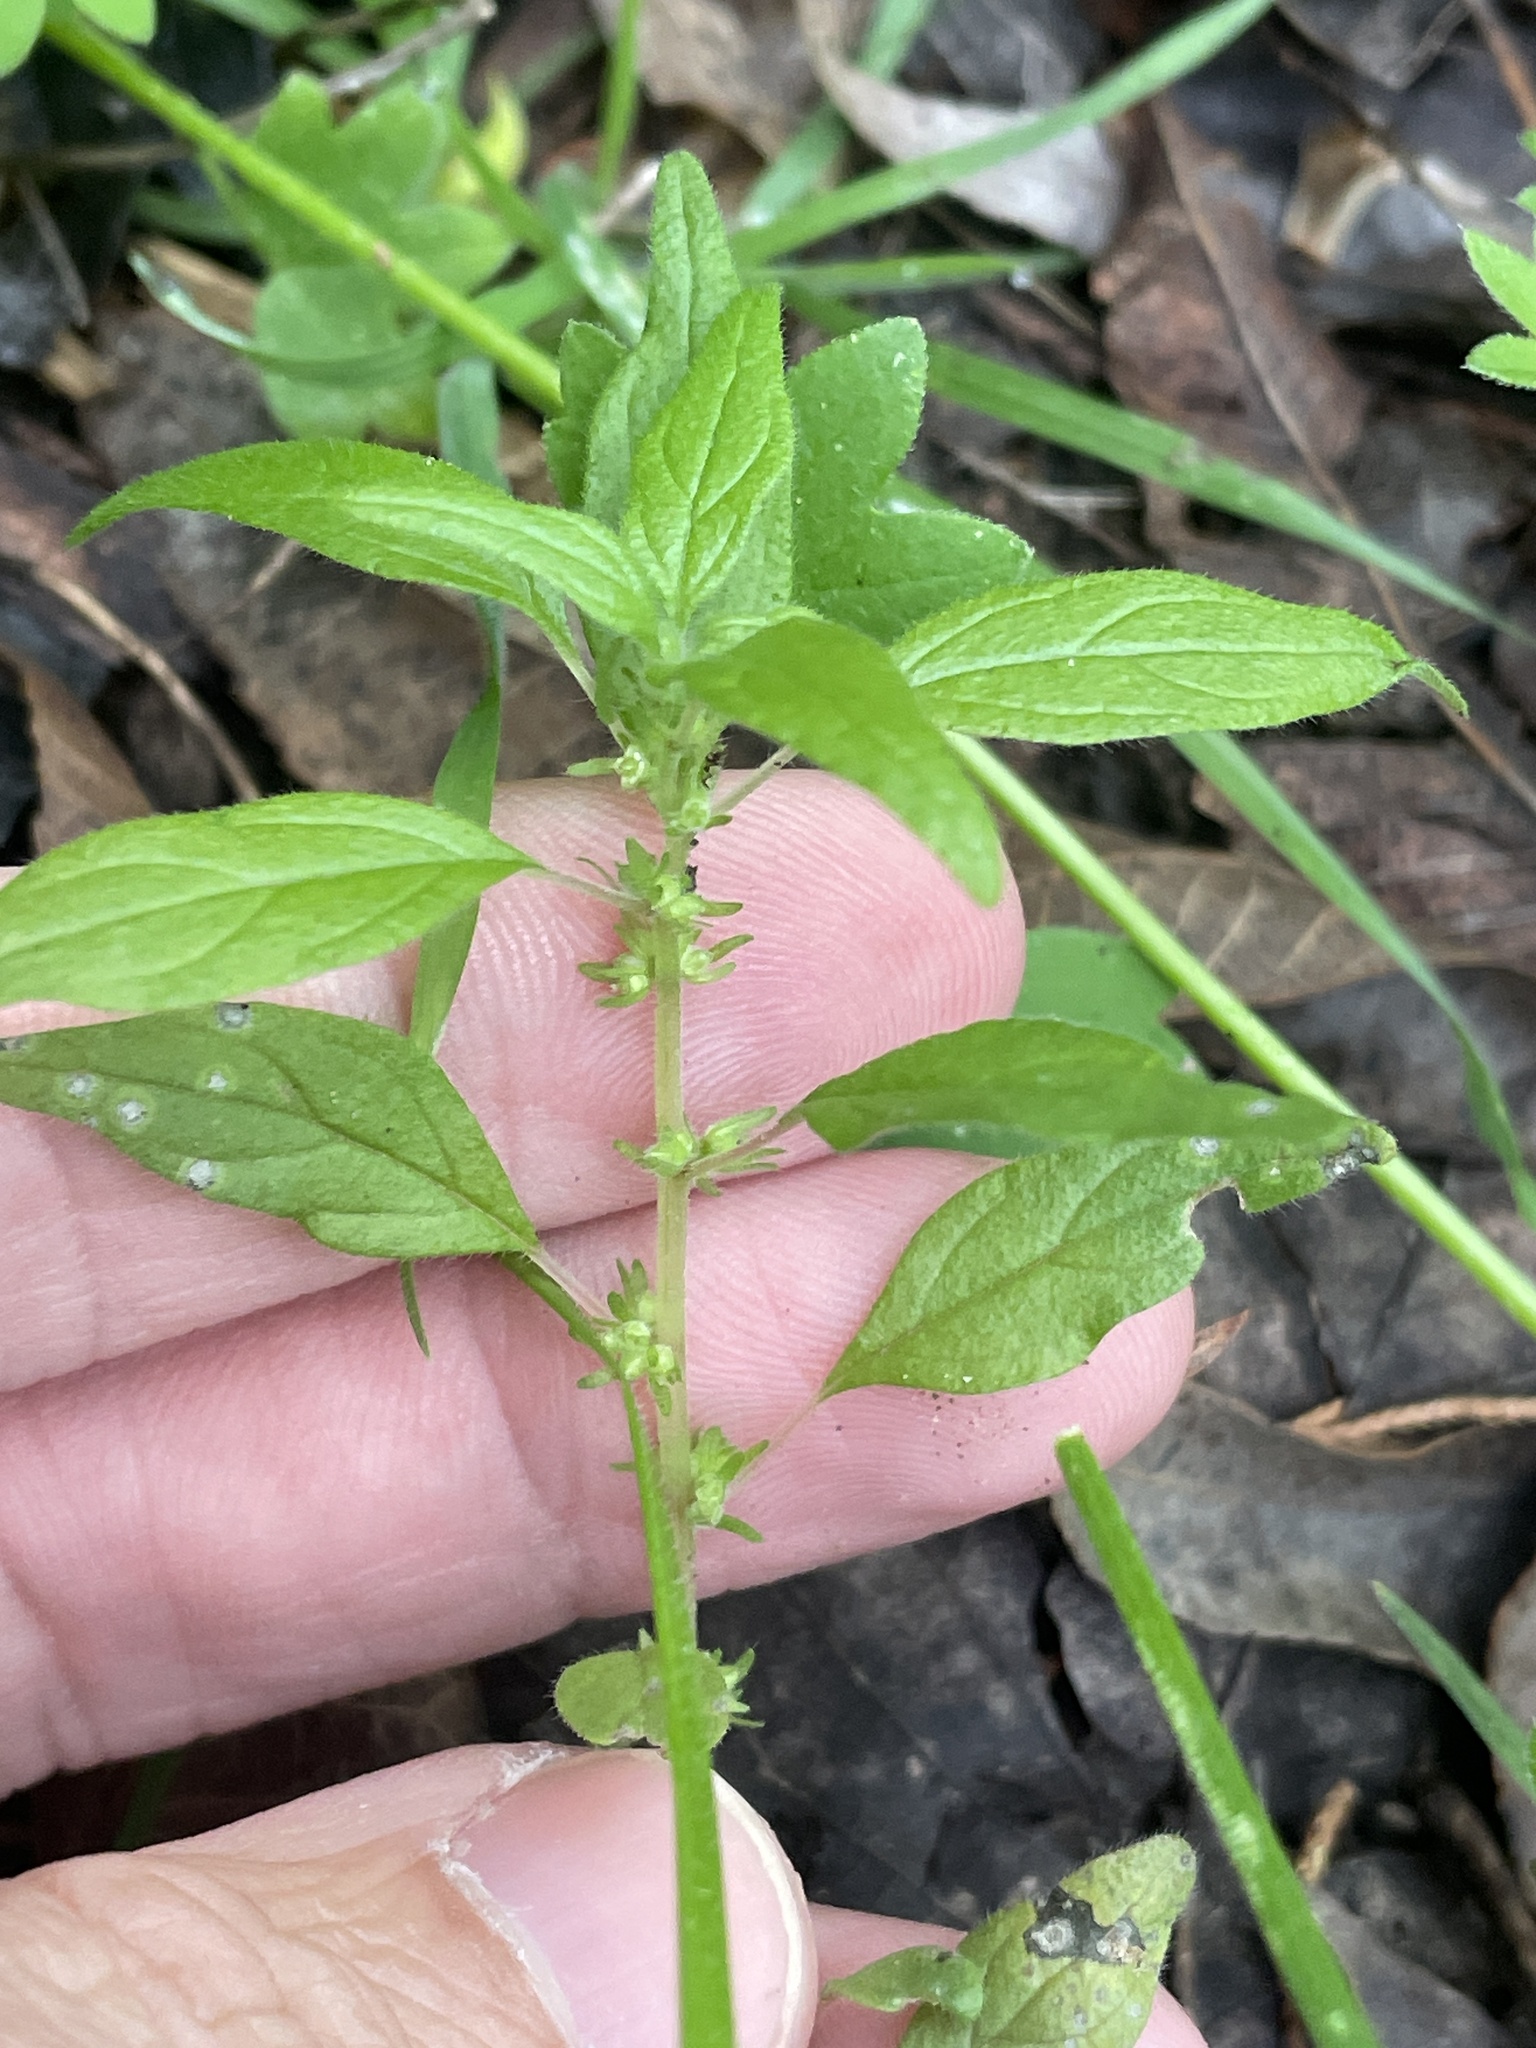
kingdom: Plantae
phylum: Tracheophyta
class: Magnoliopsida
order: Rosales
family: Urticaceae
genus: Parietaria
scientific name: Parietaria pensylvanica
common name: Pennsylvania pellitory
